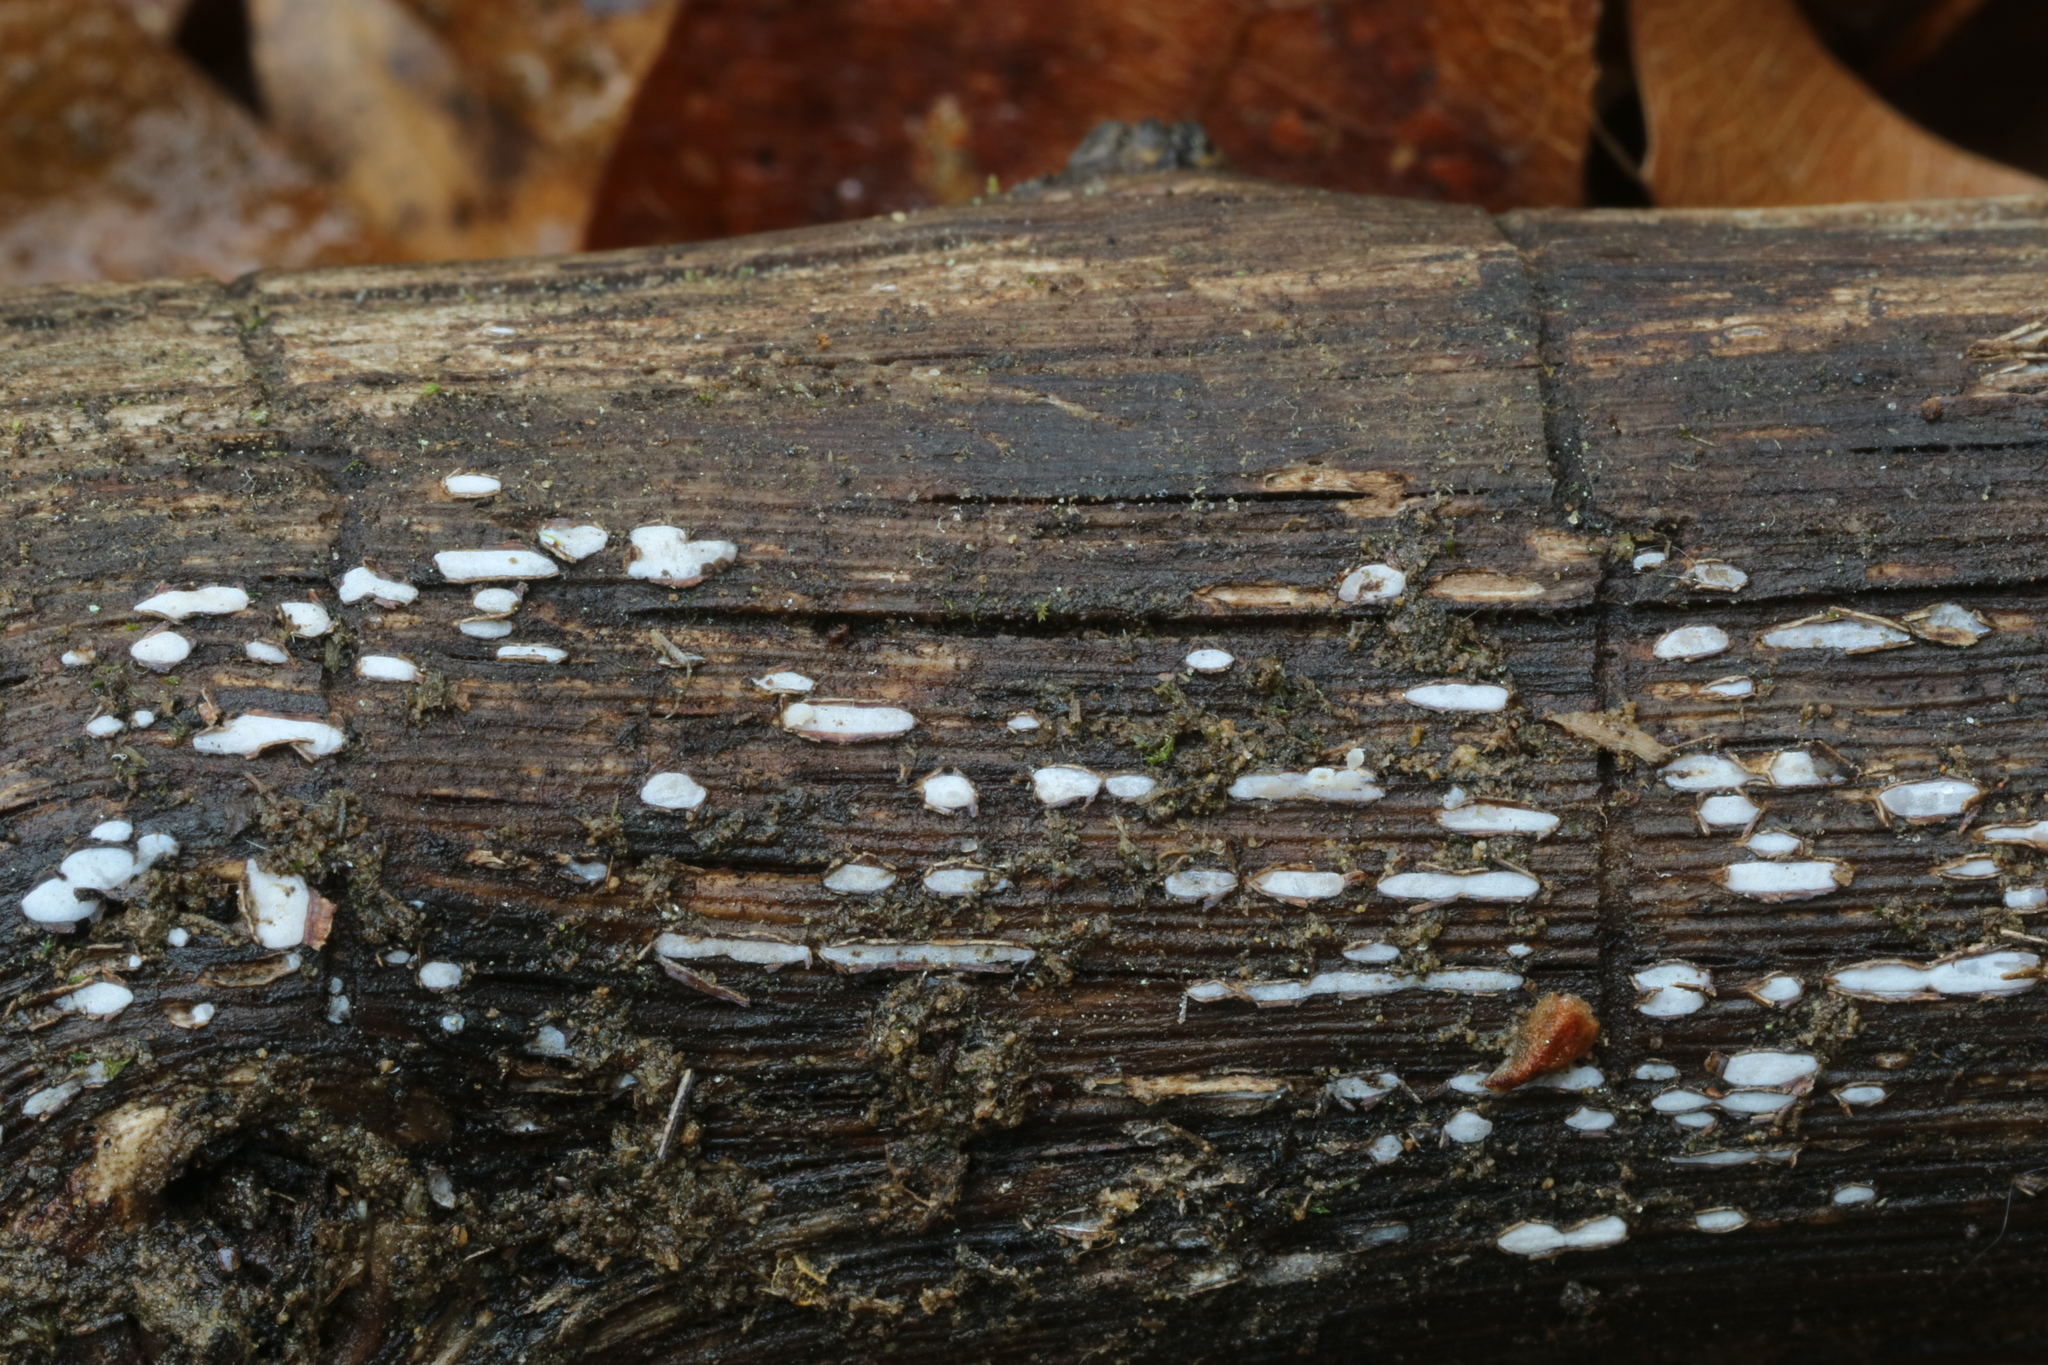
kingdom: Fungi
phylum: Ascomycota
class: Leotiomycetes
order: Chaetomellales
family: Marthamycetaceae
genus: Propolis
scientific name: Propolis farinosa
